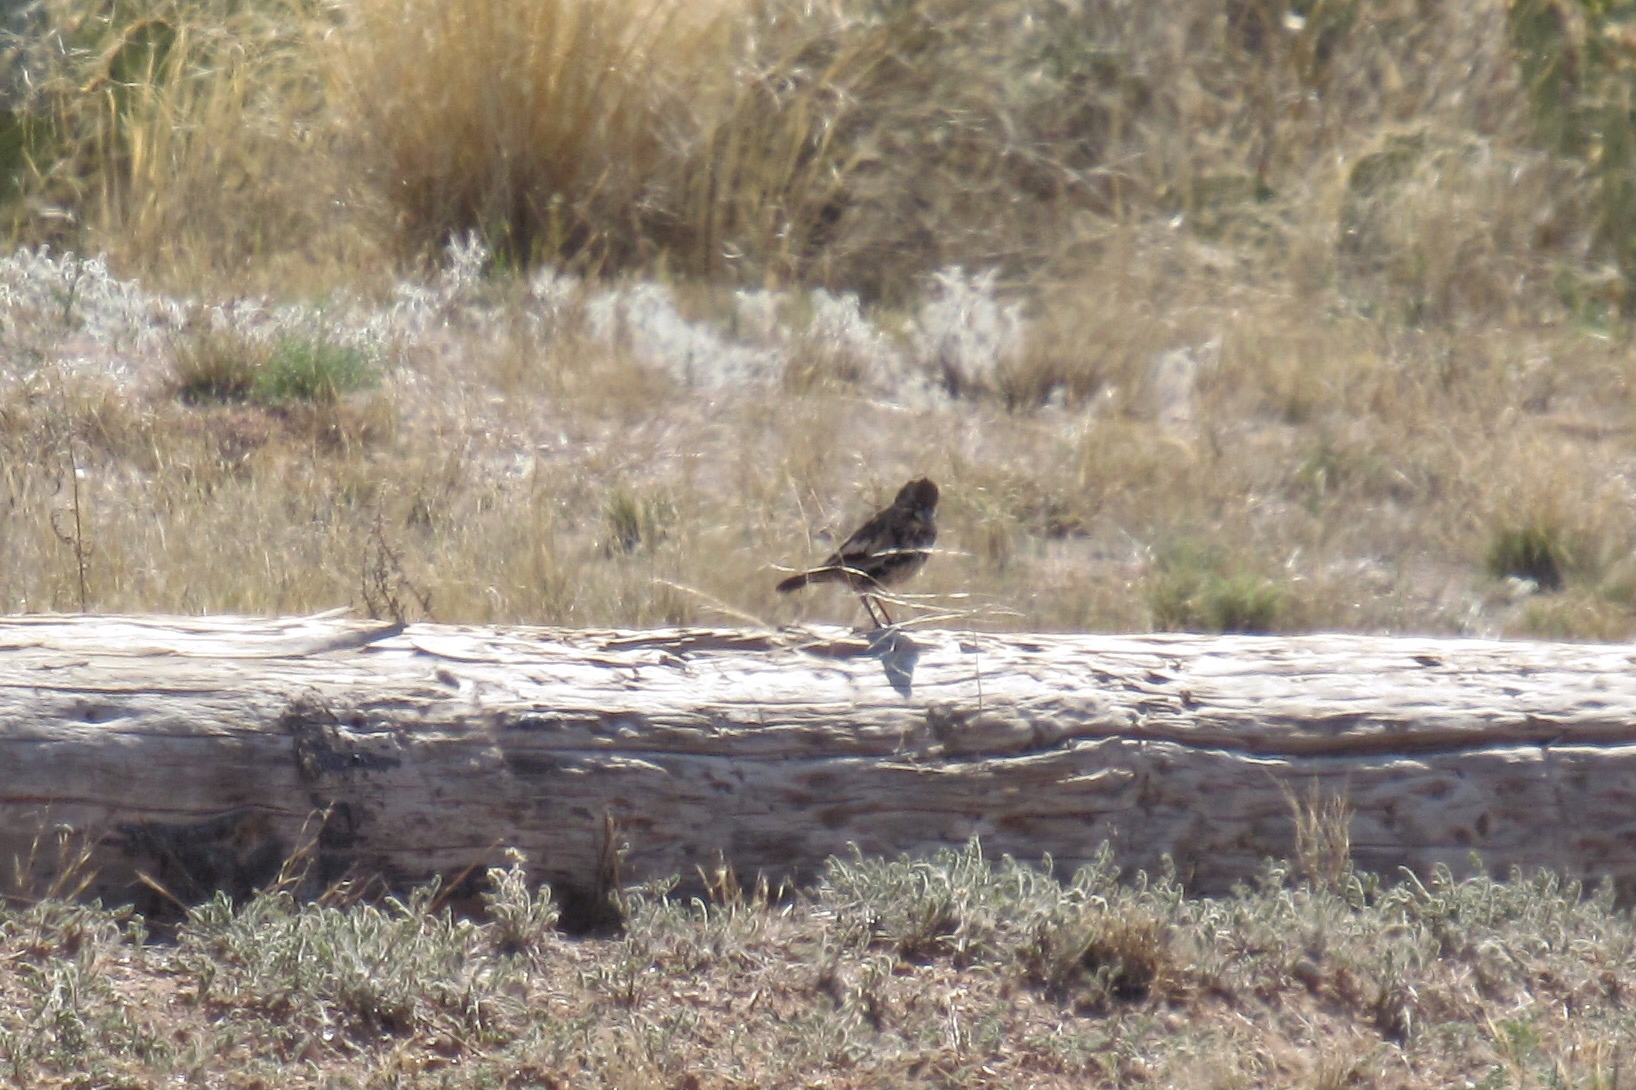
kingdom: Animalia
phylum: Chordata
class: Aves
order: Passeriformes
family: Passerellidae
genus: Calamospiza
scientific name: Calamospiza melanocorys
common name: Lark bunting
